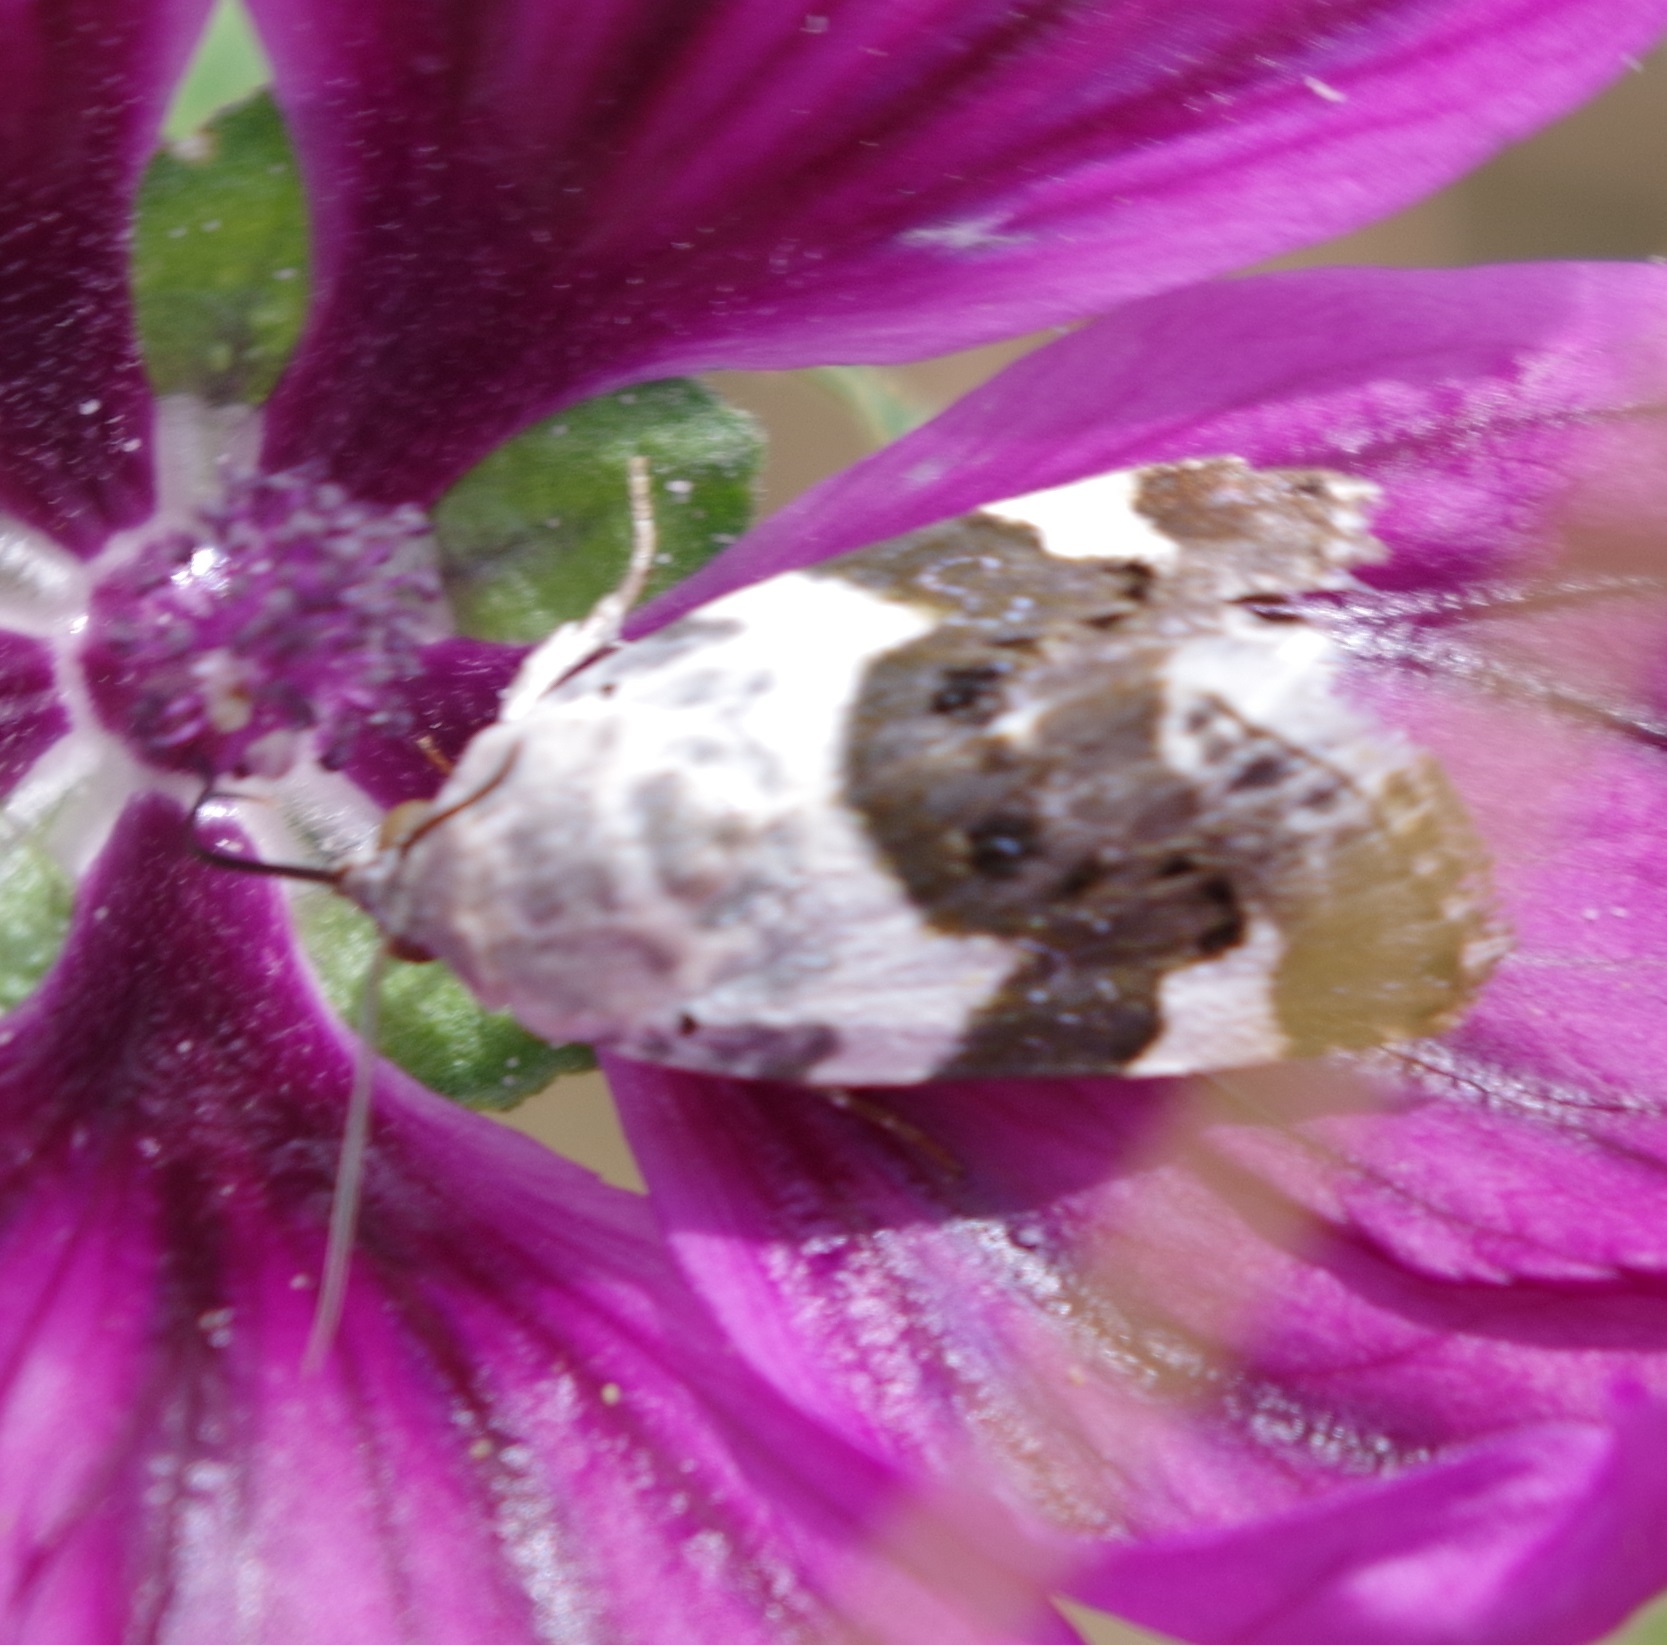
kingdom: Animalia
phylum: Arthropoda
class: Insecta
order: Lepidoptera
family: Noctuidae
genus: Acontia
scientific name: Acontia lucida
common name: Pale shoulder
